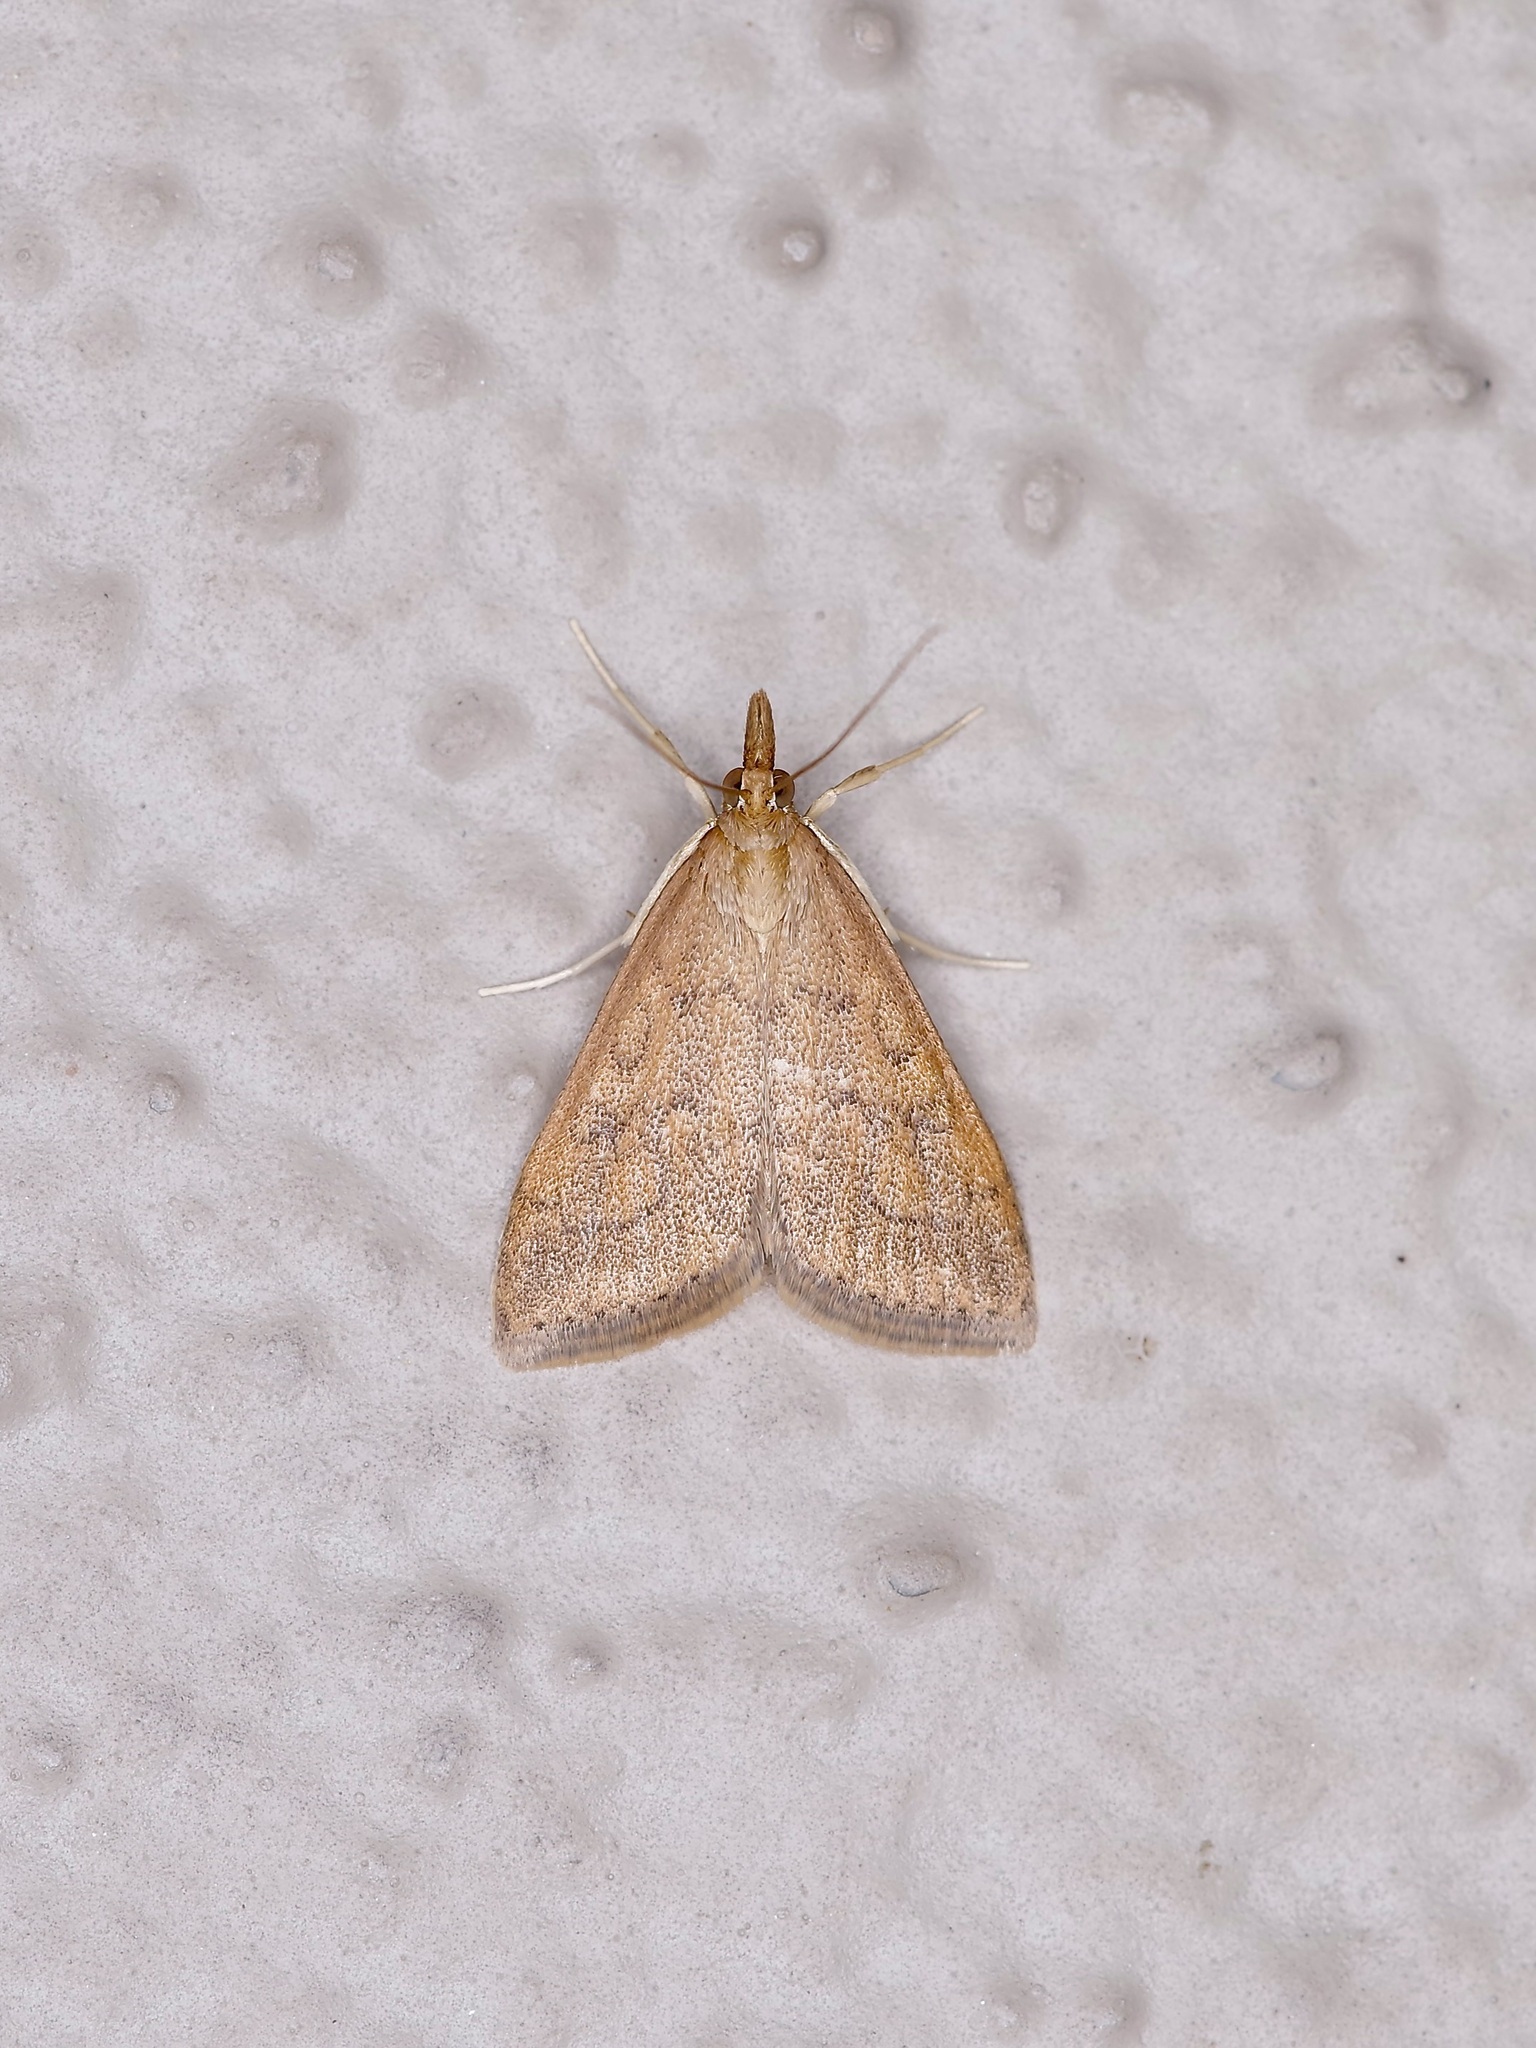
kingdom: Animalia
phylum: Arthropoda
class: Insecta
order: Lepidoptera
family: Crambidae
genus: Udea
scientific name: Udea rubigalis
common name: Celery leaftier moth
